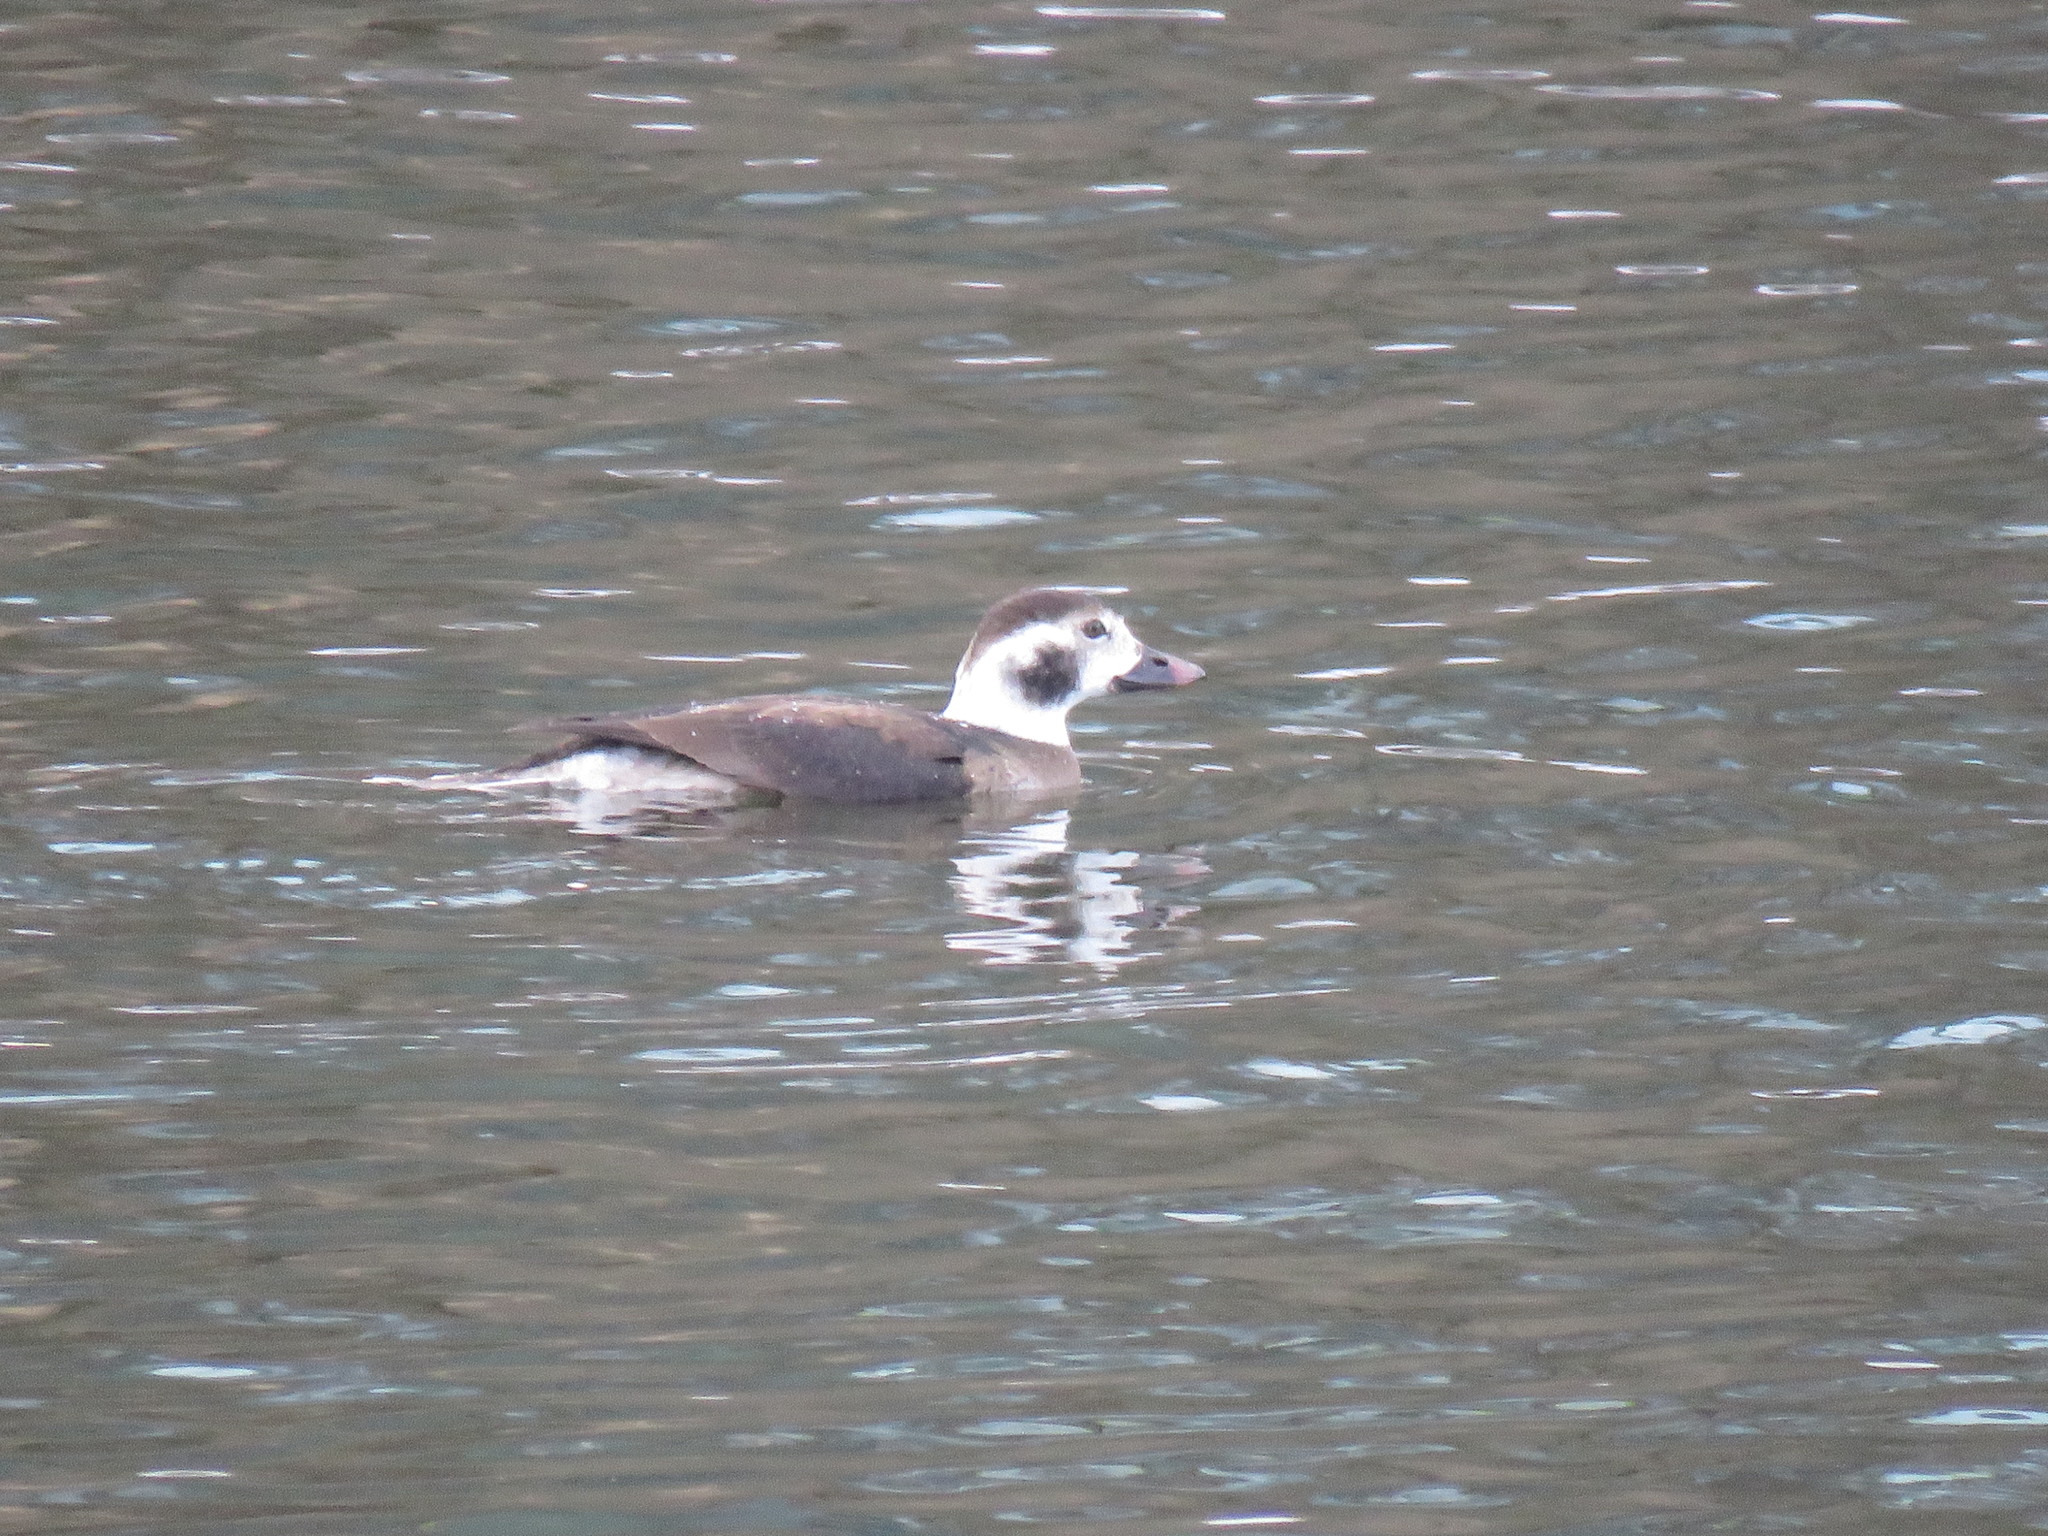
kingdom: Animalia
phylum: Chordata
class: Aves
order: Anseriformes
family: Anatidae
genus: Clangula
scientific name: Clangula hyemalis
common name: Long-tailed duck
